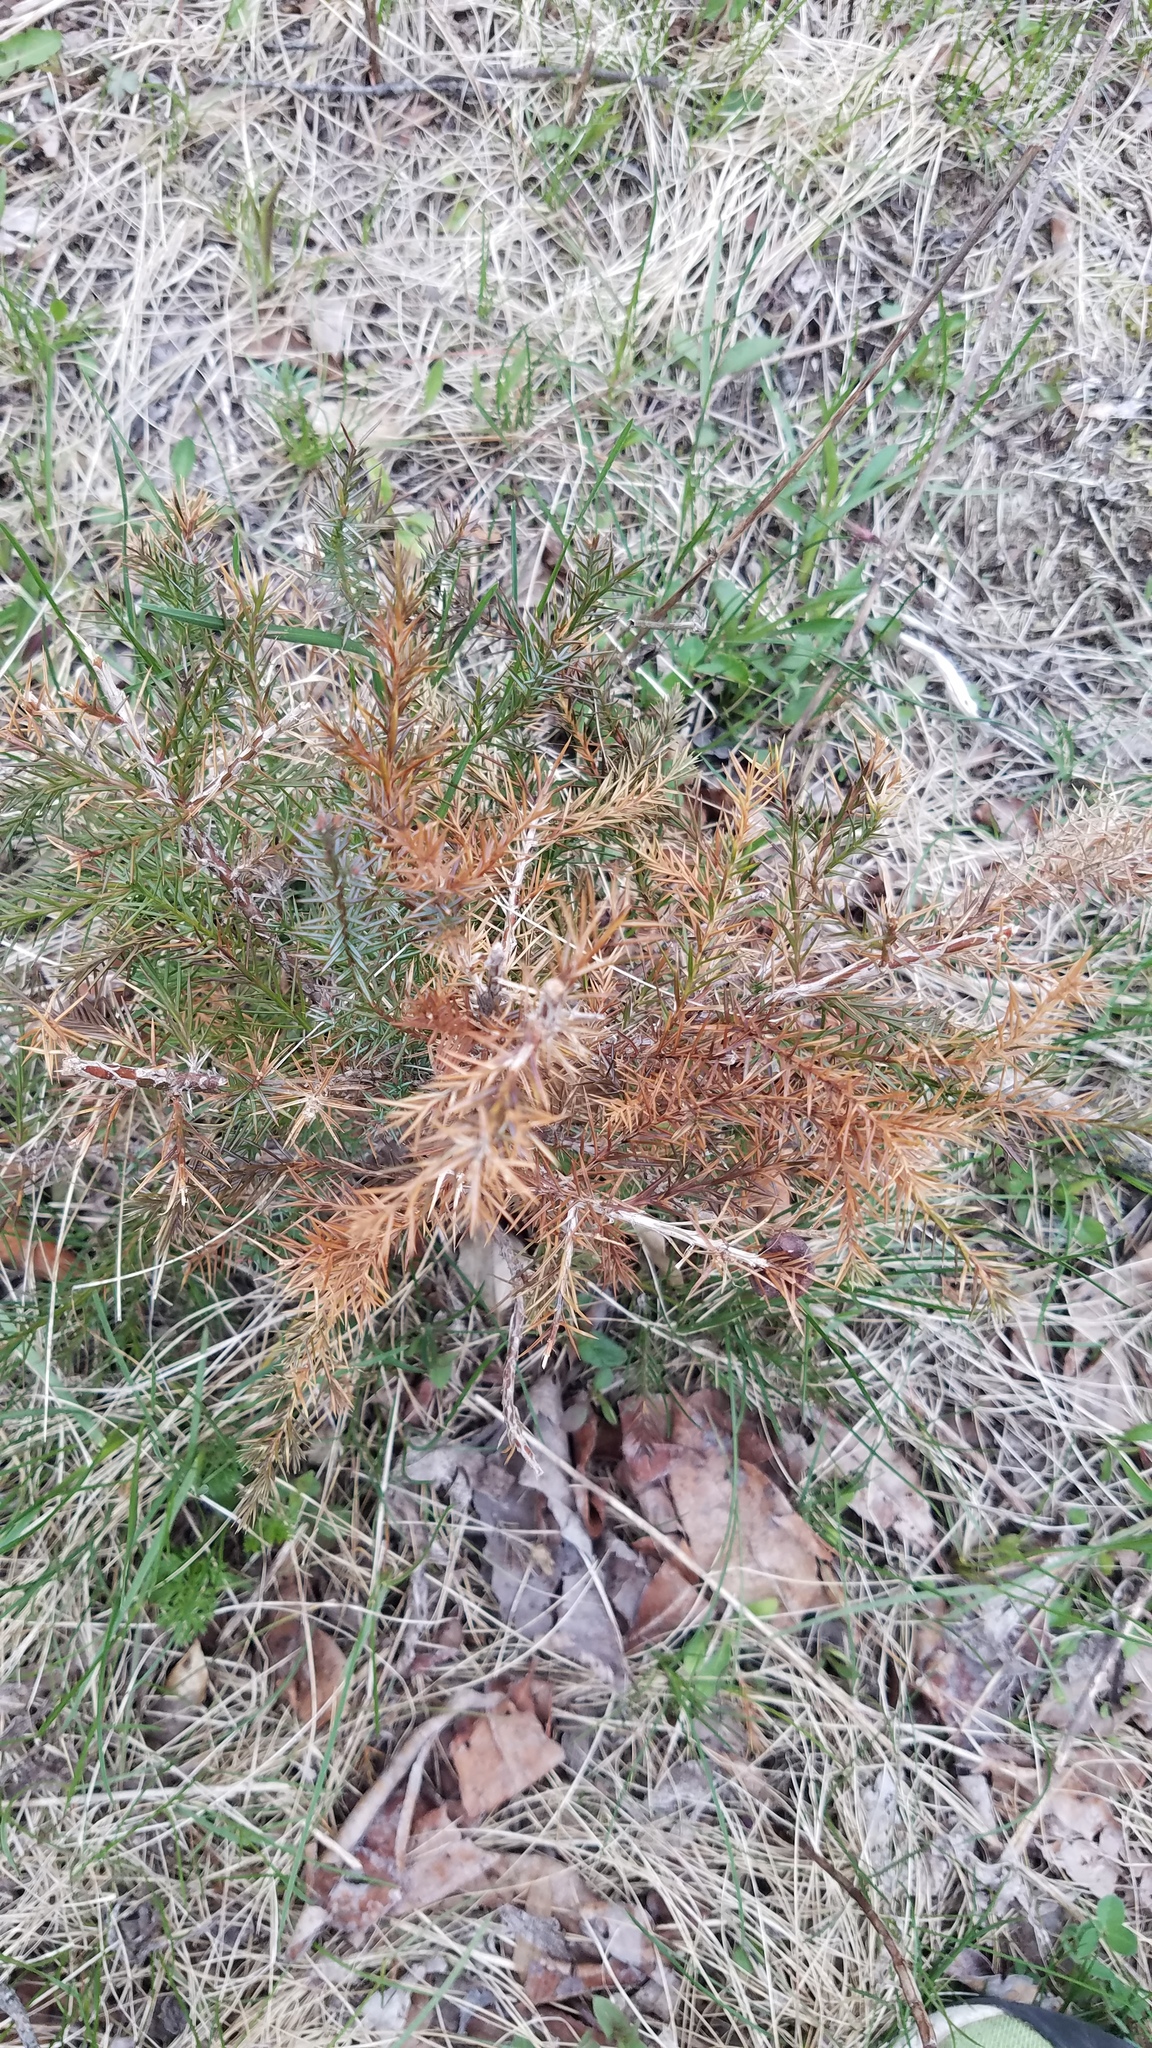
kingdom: Plantae
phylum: Tracheophyta
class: Pinopsida
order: Pinales
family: Cupressaceae
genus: Juniperus
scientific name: Juniperus virginiana
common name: Red juniper
